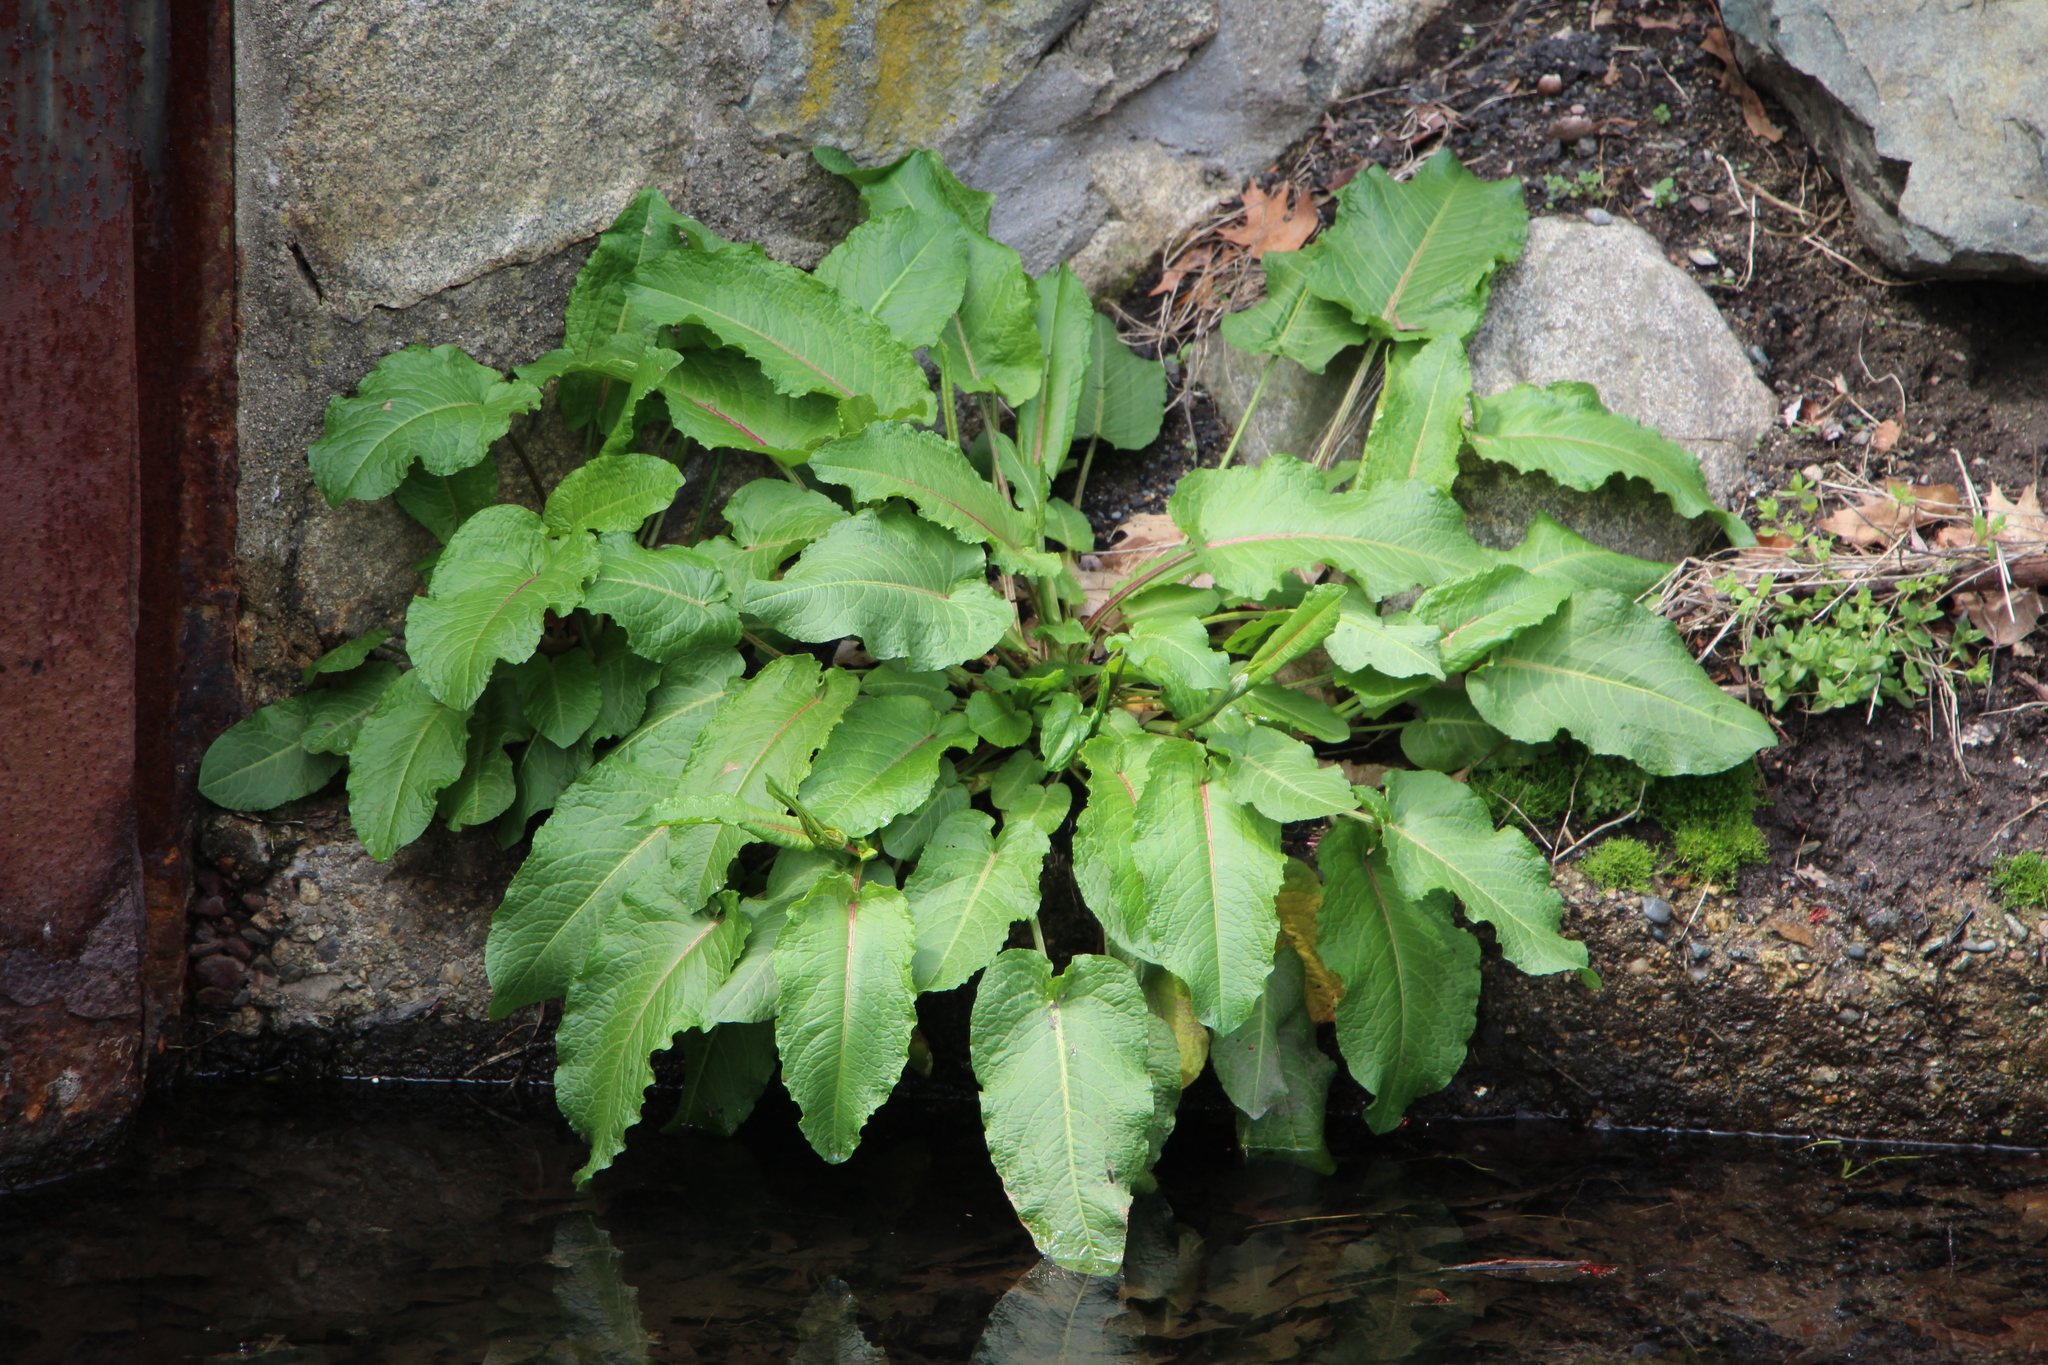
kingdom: Plantae
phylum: Tracheophyta
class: Magnoliopsida
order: Caryophyllales
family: Polygonaceae
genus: Rumex
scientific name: Rumex obtusifolius
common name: Bitter dock
